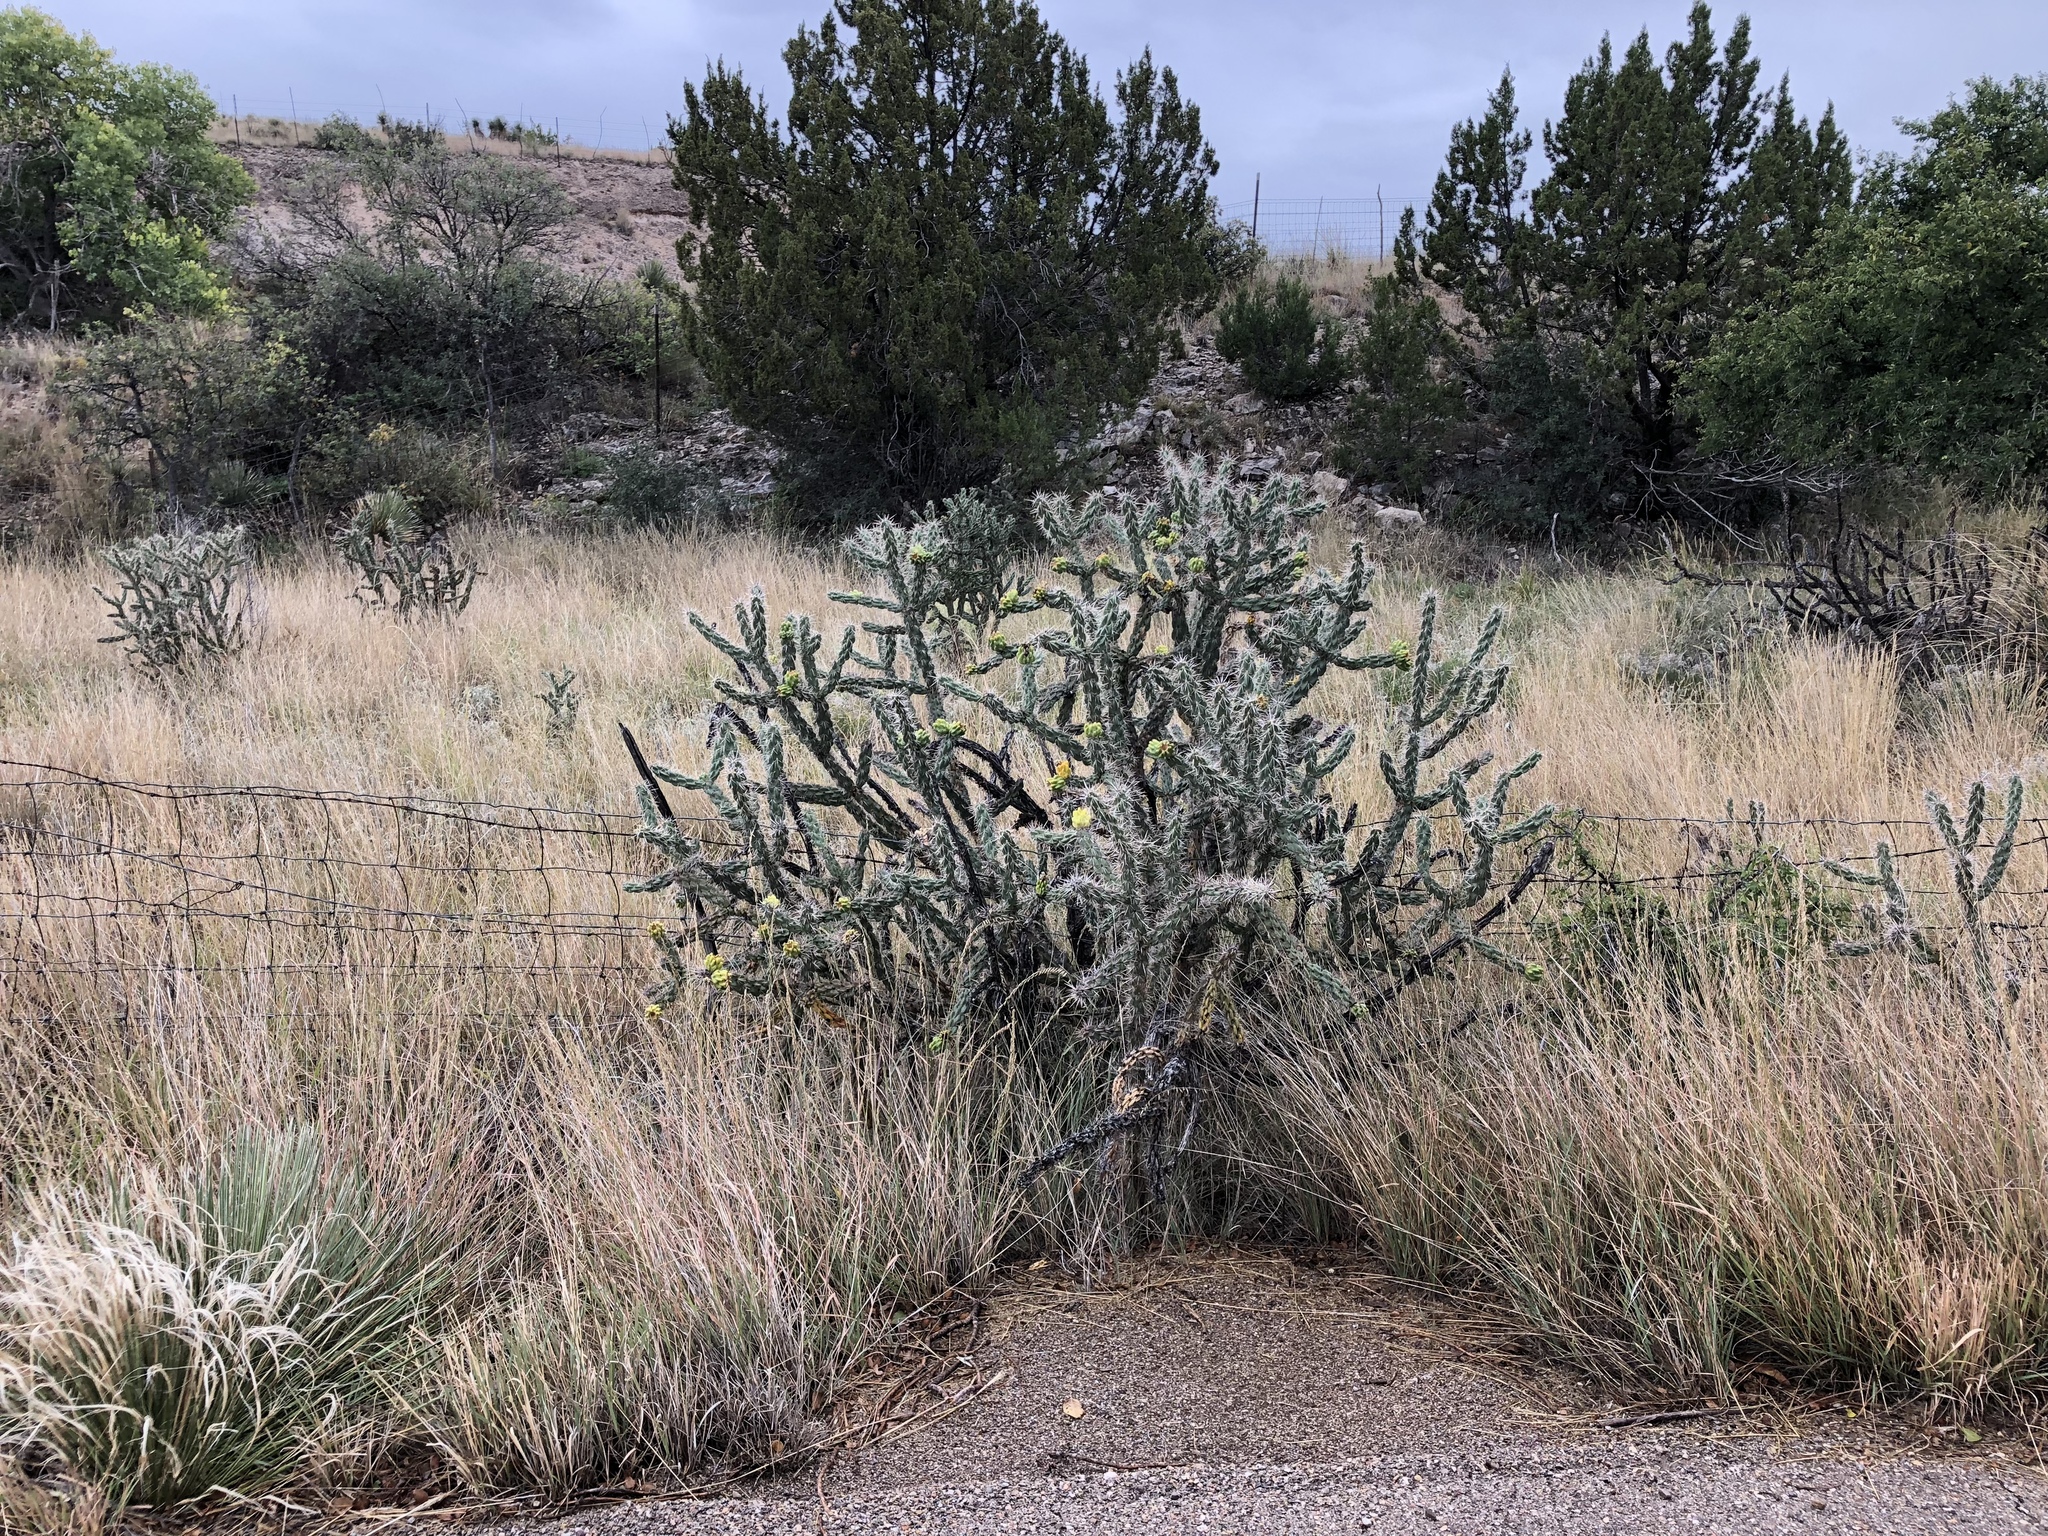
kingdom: Plantae
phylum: Tracheophyta
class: Magnoliopsida
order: Caryophyllales
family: Cactaceae
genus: Cylindropuntia
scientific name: Cylindropuntia imbricata
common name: Candelabrum cactus
